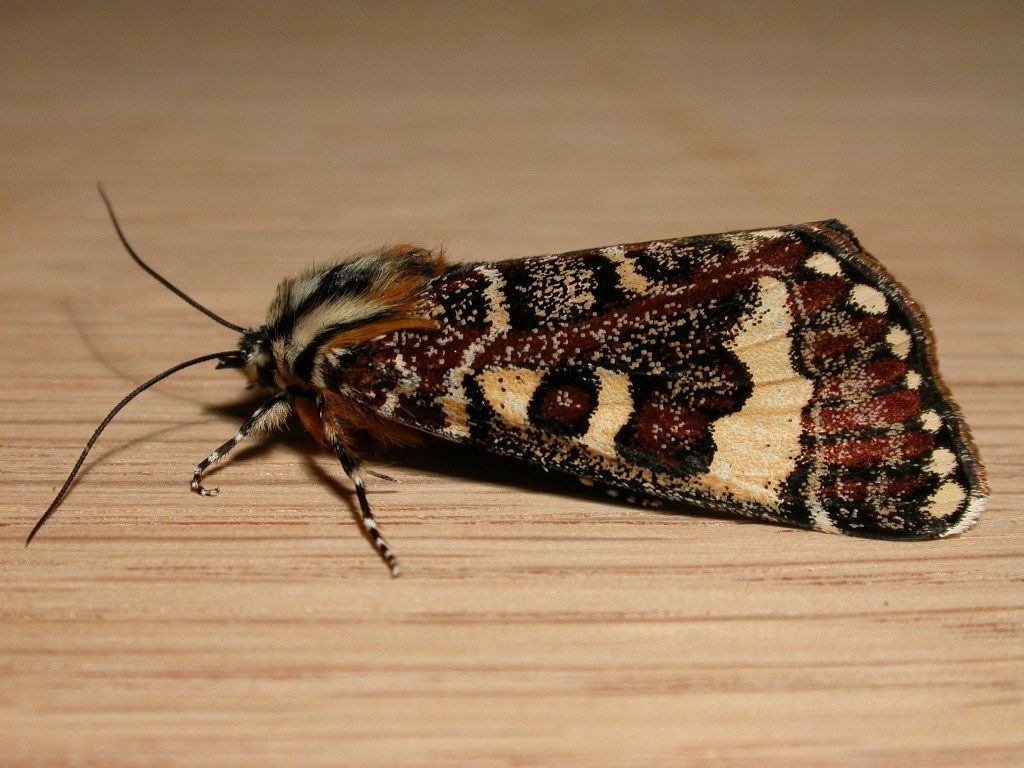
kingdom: Animalia
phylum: Arthropoda
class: Insecta
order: Lepidoptera
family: Noctuidae
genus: Apina
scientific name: Apina callisto
